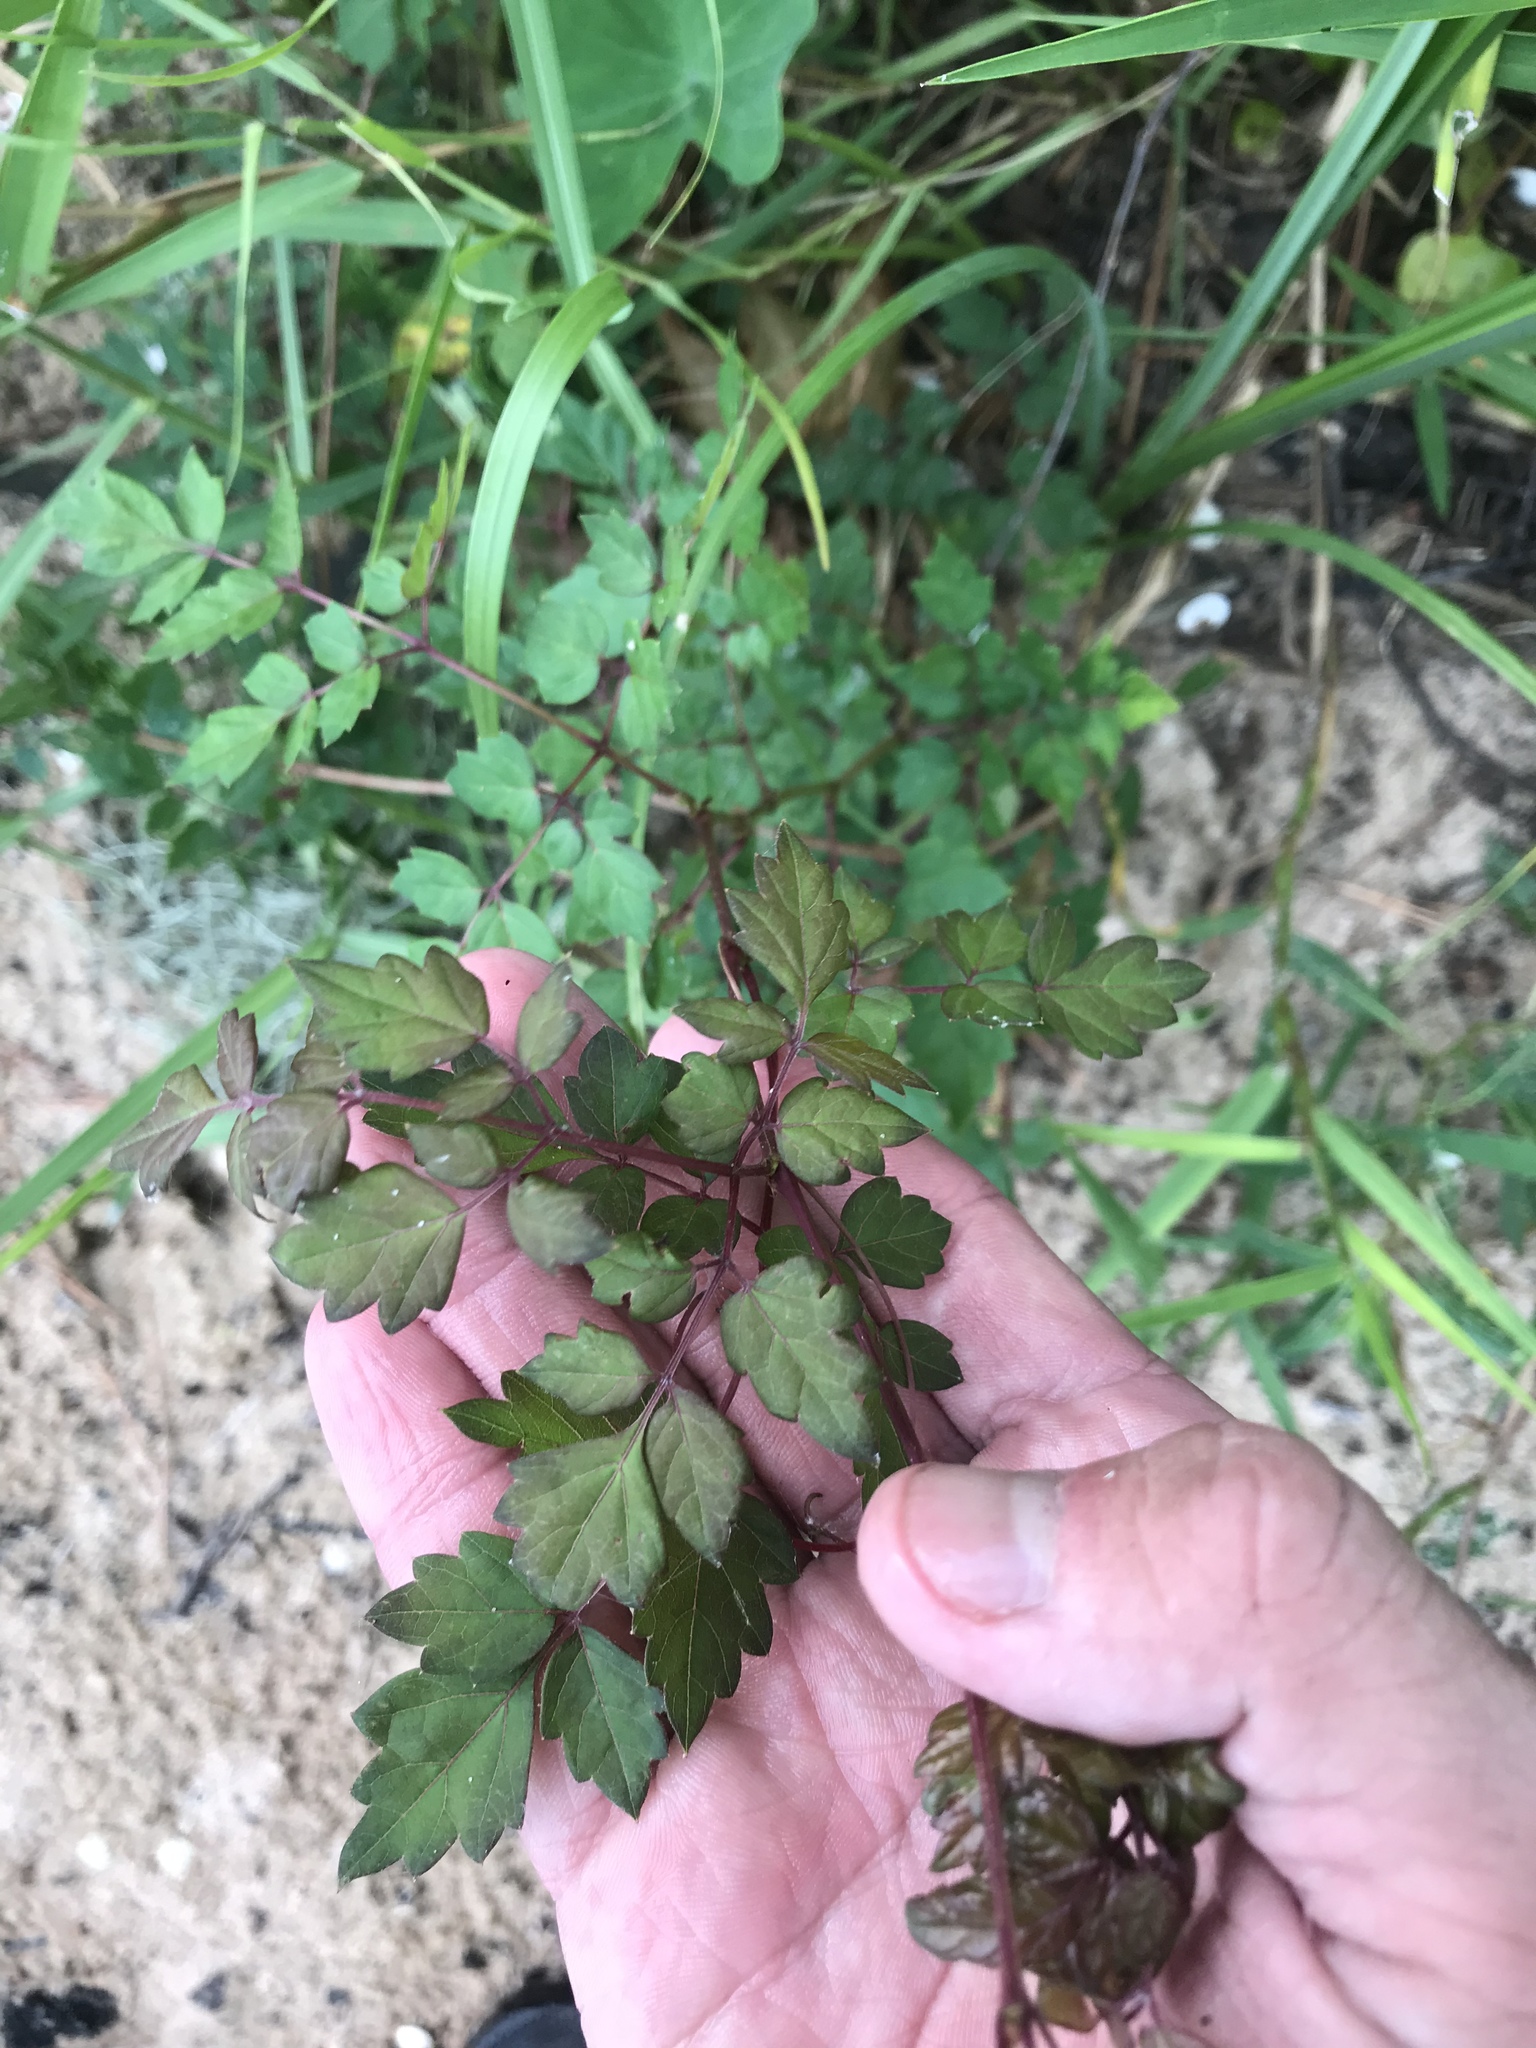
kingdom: Plantae
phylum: Tracheophyta
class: Magnoliopsida
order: Vitales
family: Vitaceae
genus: Nekemias
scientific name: Nekemias arborea
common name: Peppervine
